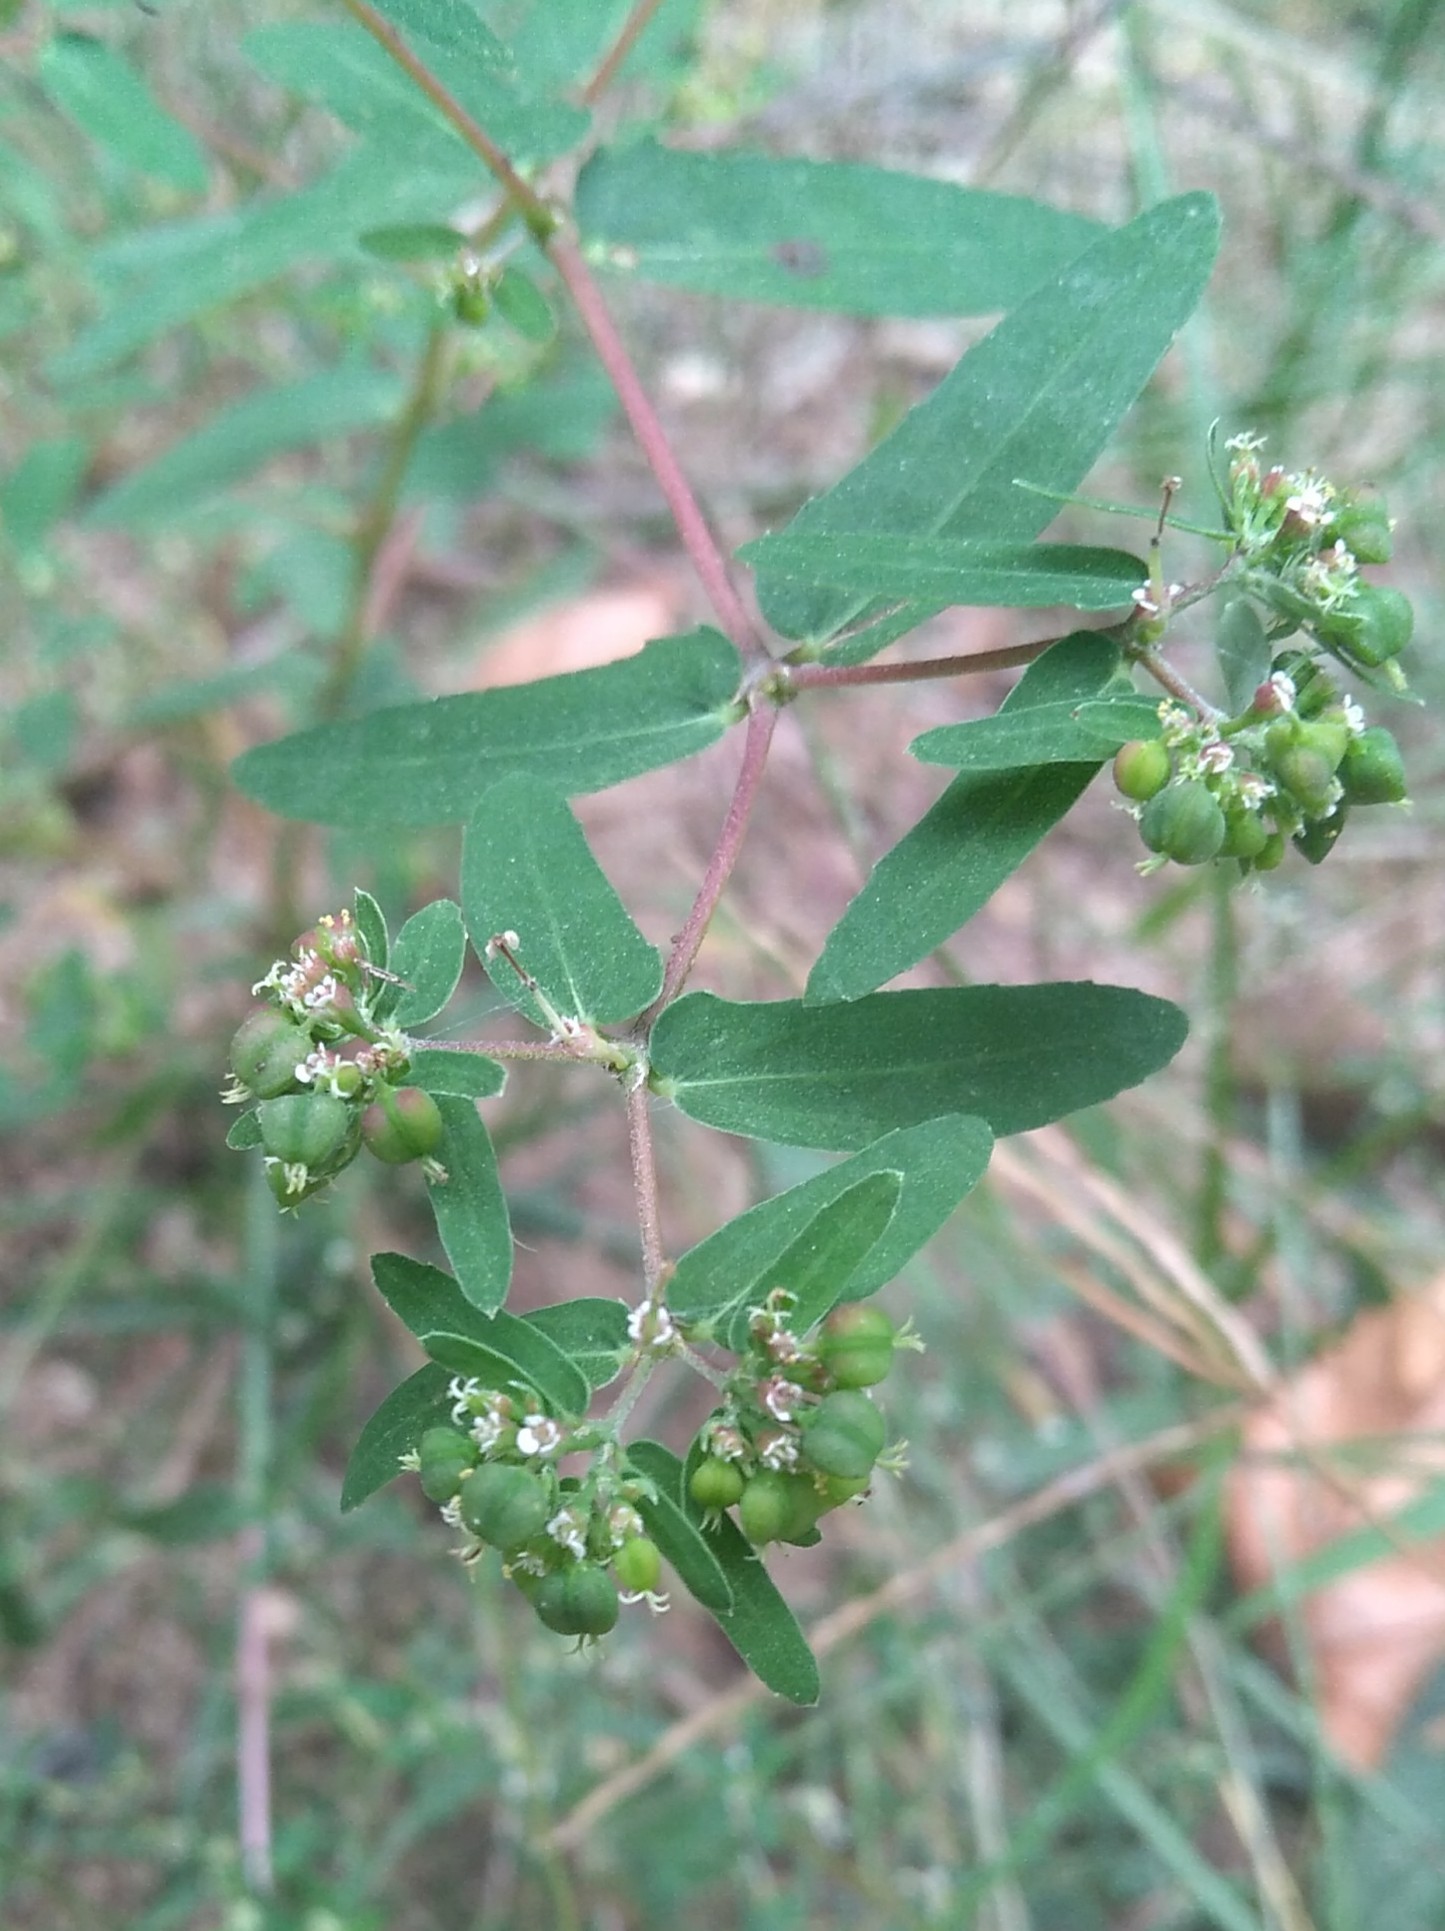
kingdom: Plantae
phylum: Tracheophyta
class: Magnoliopsida
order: Malpighiales
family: Euphorbiaceae
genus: Euphorbia
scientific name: Euphorbia nutans
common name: Eyebane
